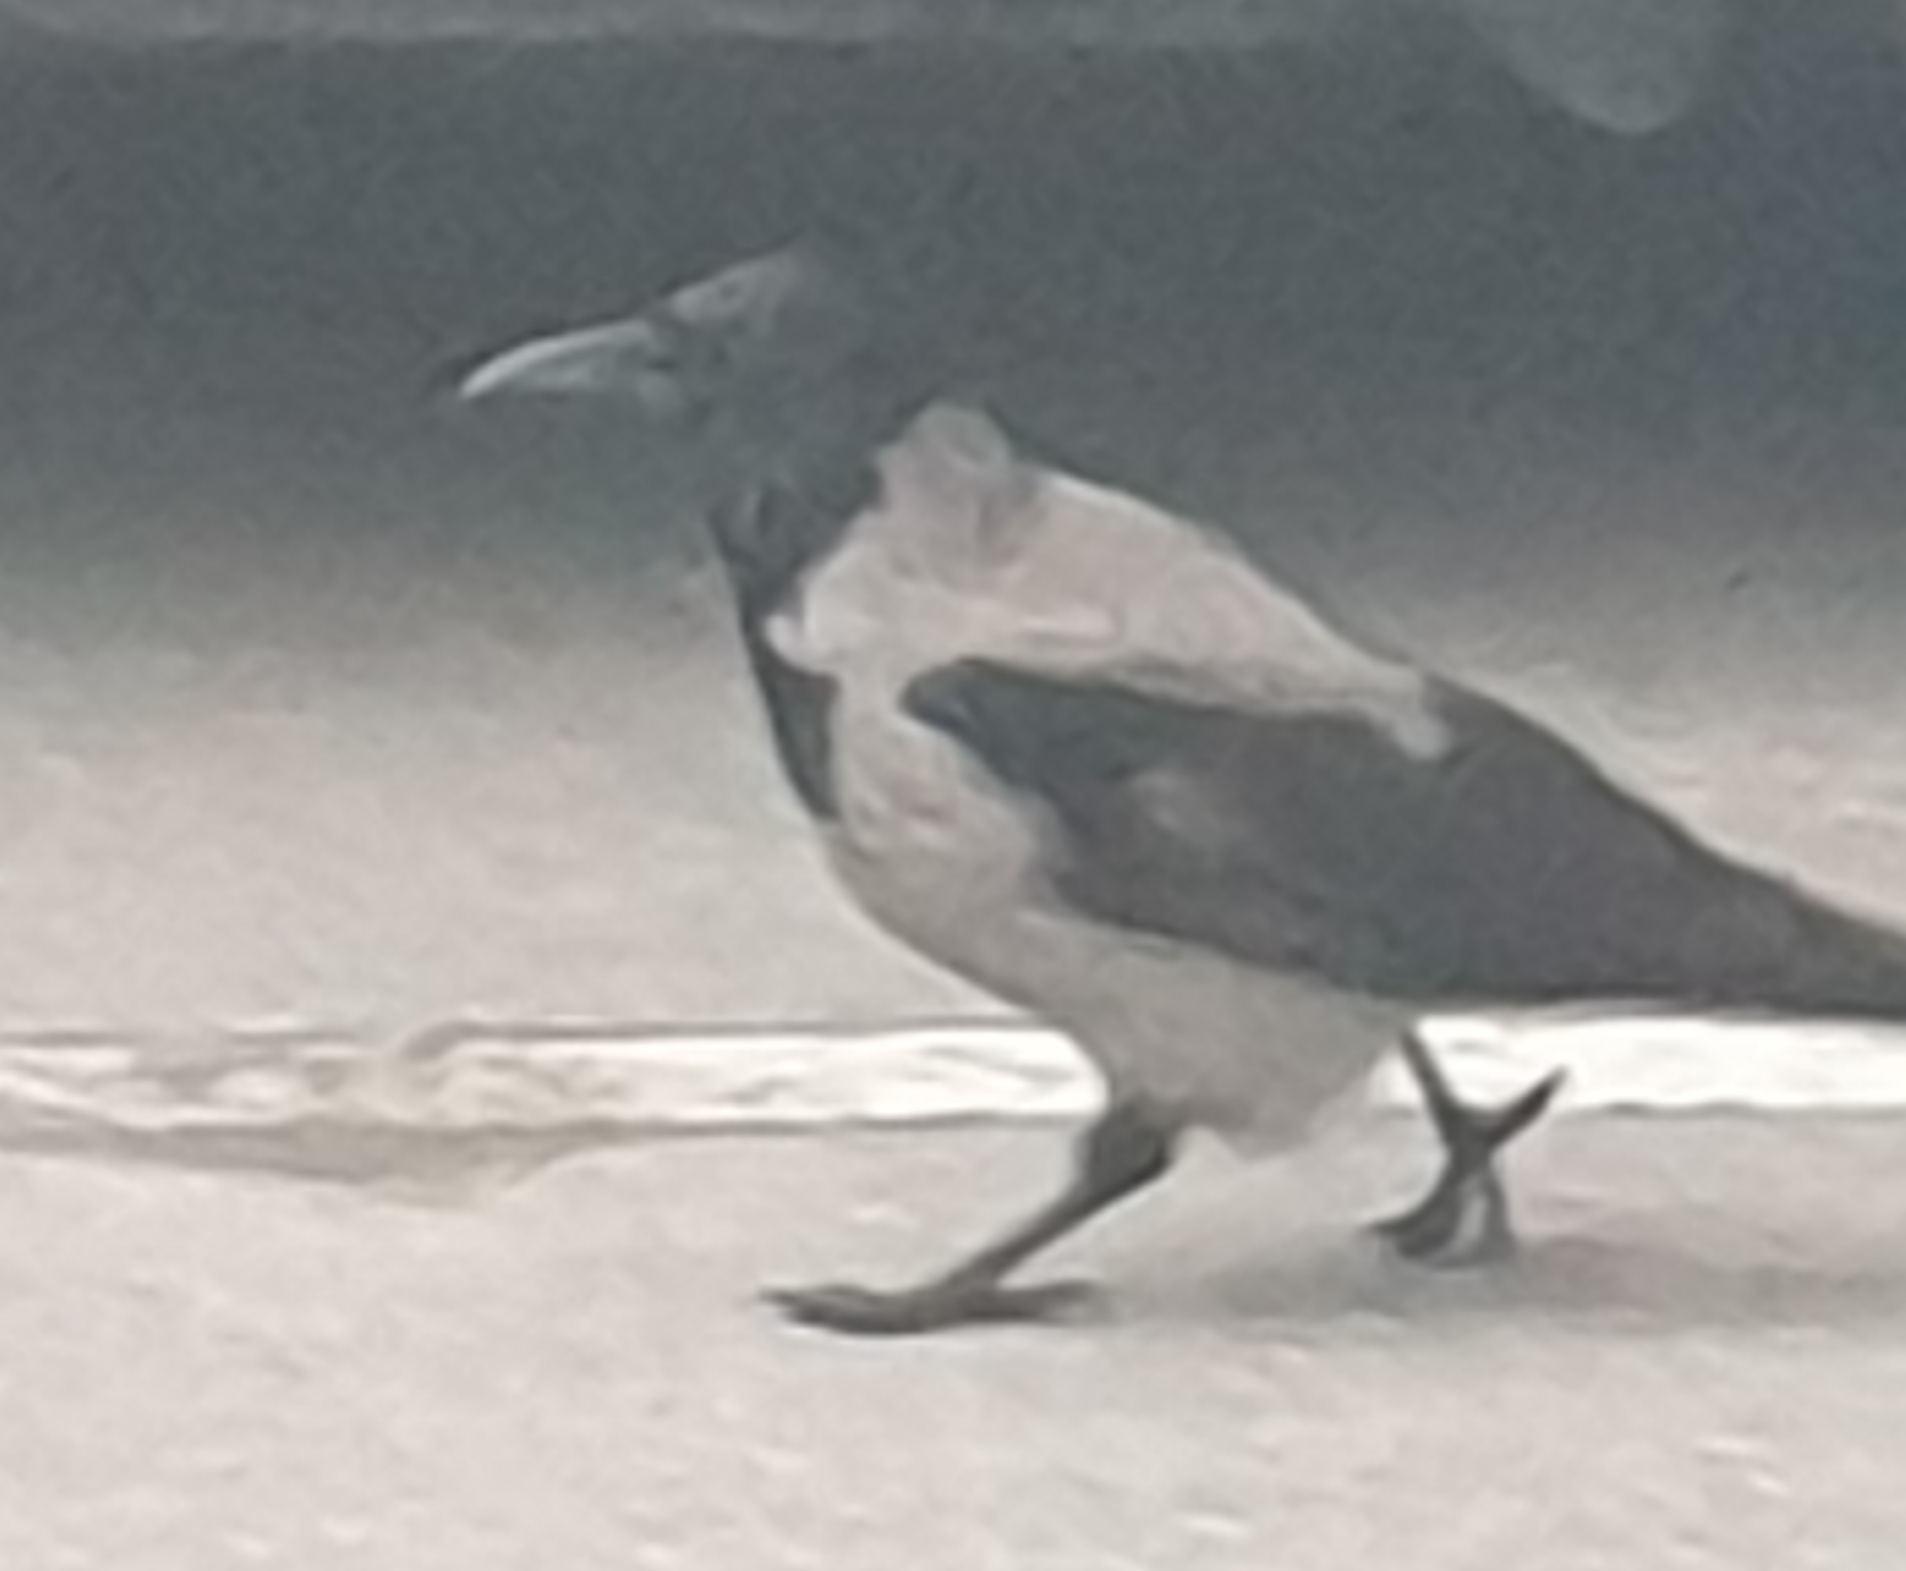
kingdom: Animalia
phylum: Chordata
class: Aves
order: Passeriformes
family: Corvidae
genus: Corvus
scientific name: Corvus cornix
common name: Hooded crow
